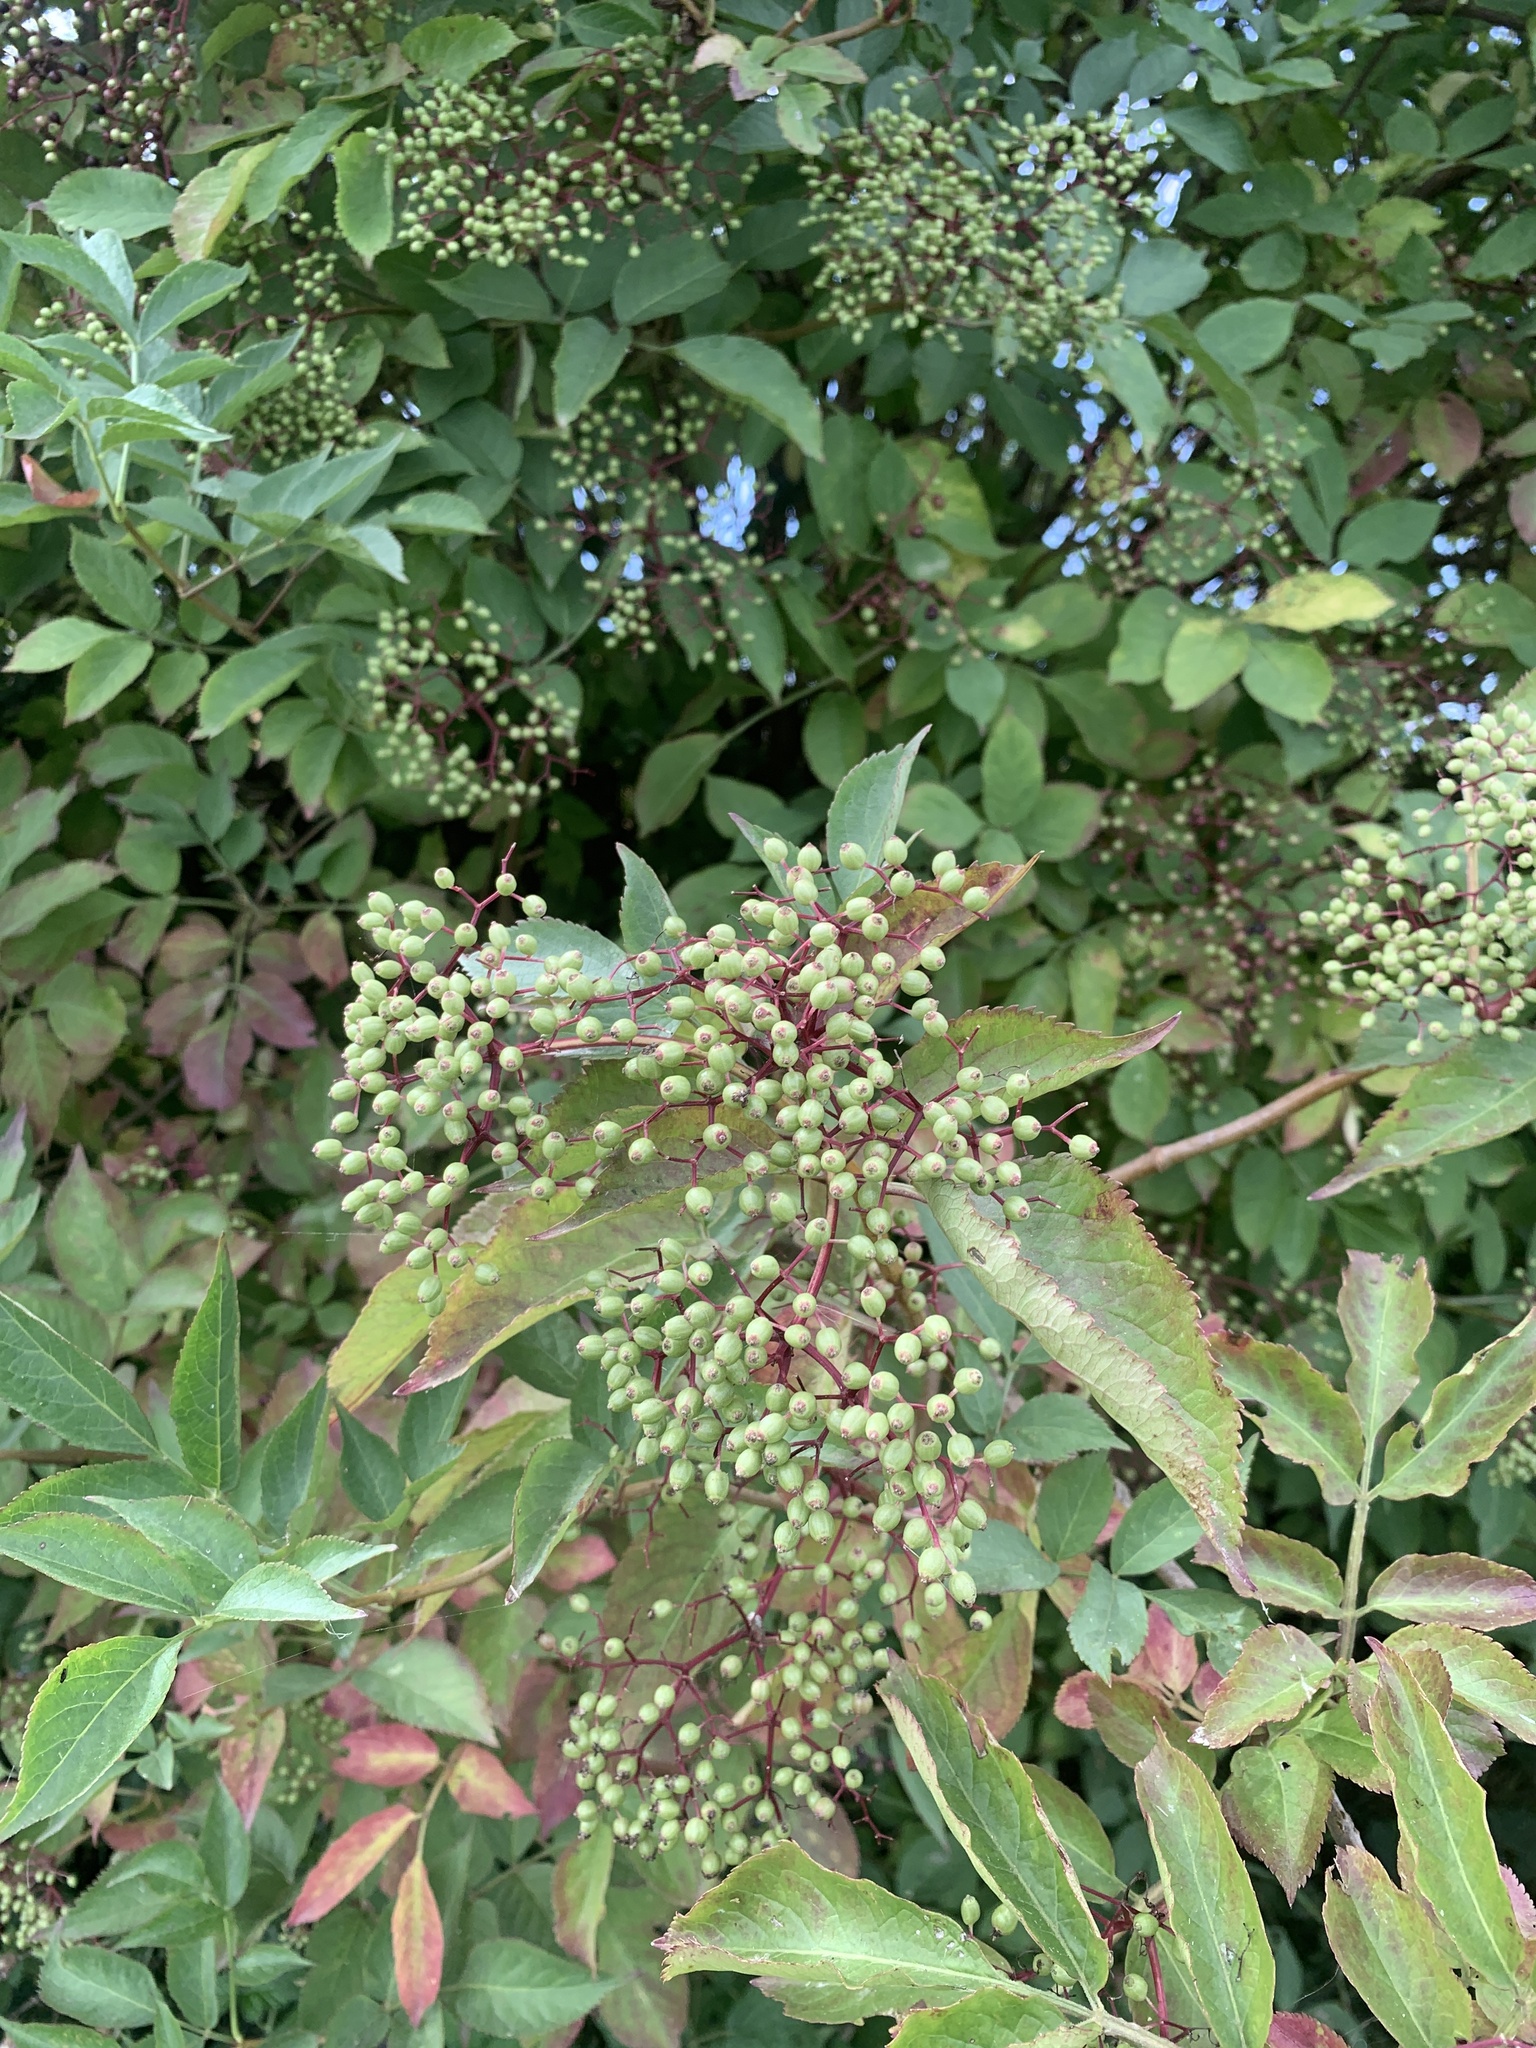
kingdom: Plantae
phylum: Tracheophyta
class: Magnoliopsida
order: Dipsacales
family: Viburnaceae
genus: Sambucus
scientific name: Sambucus nigra
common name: Elder
